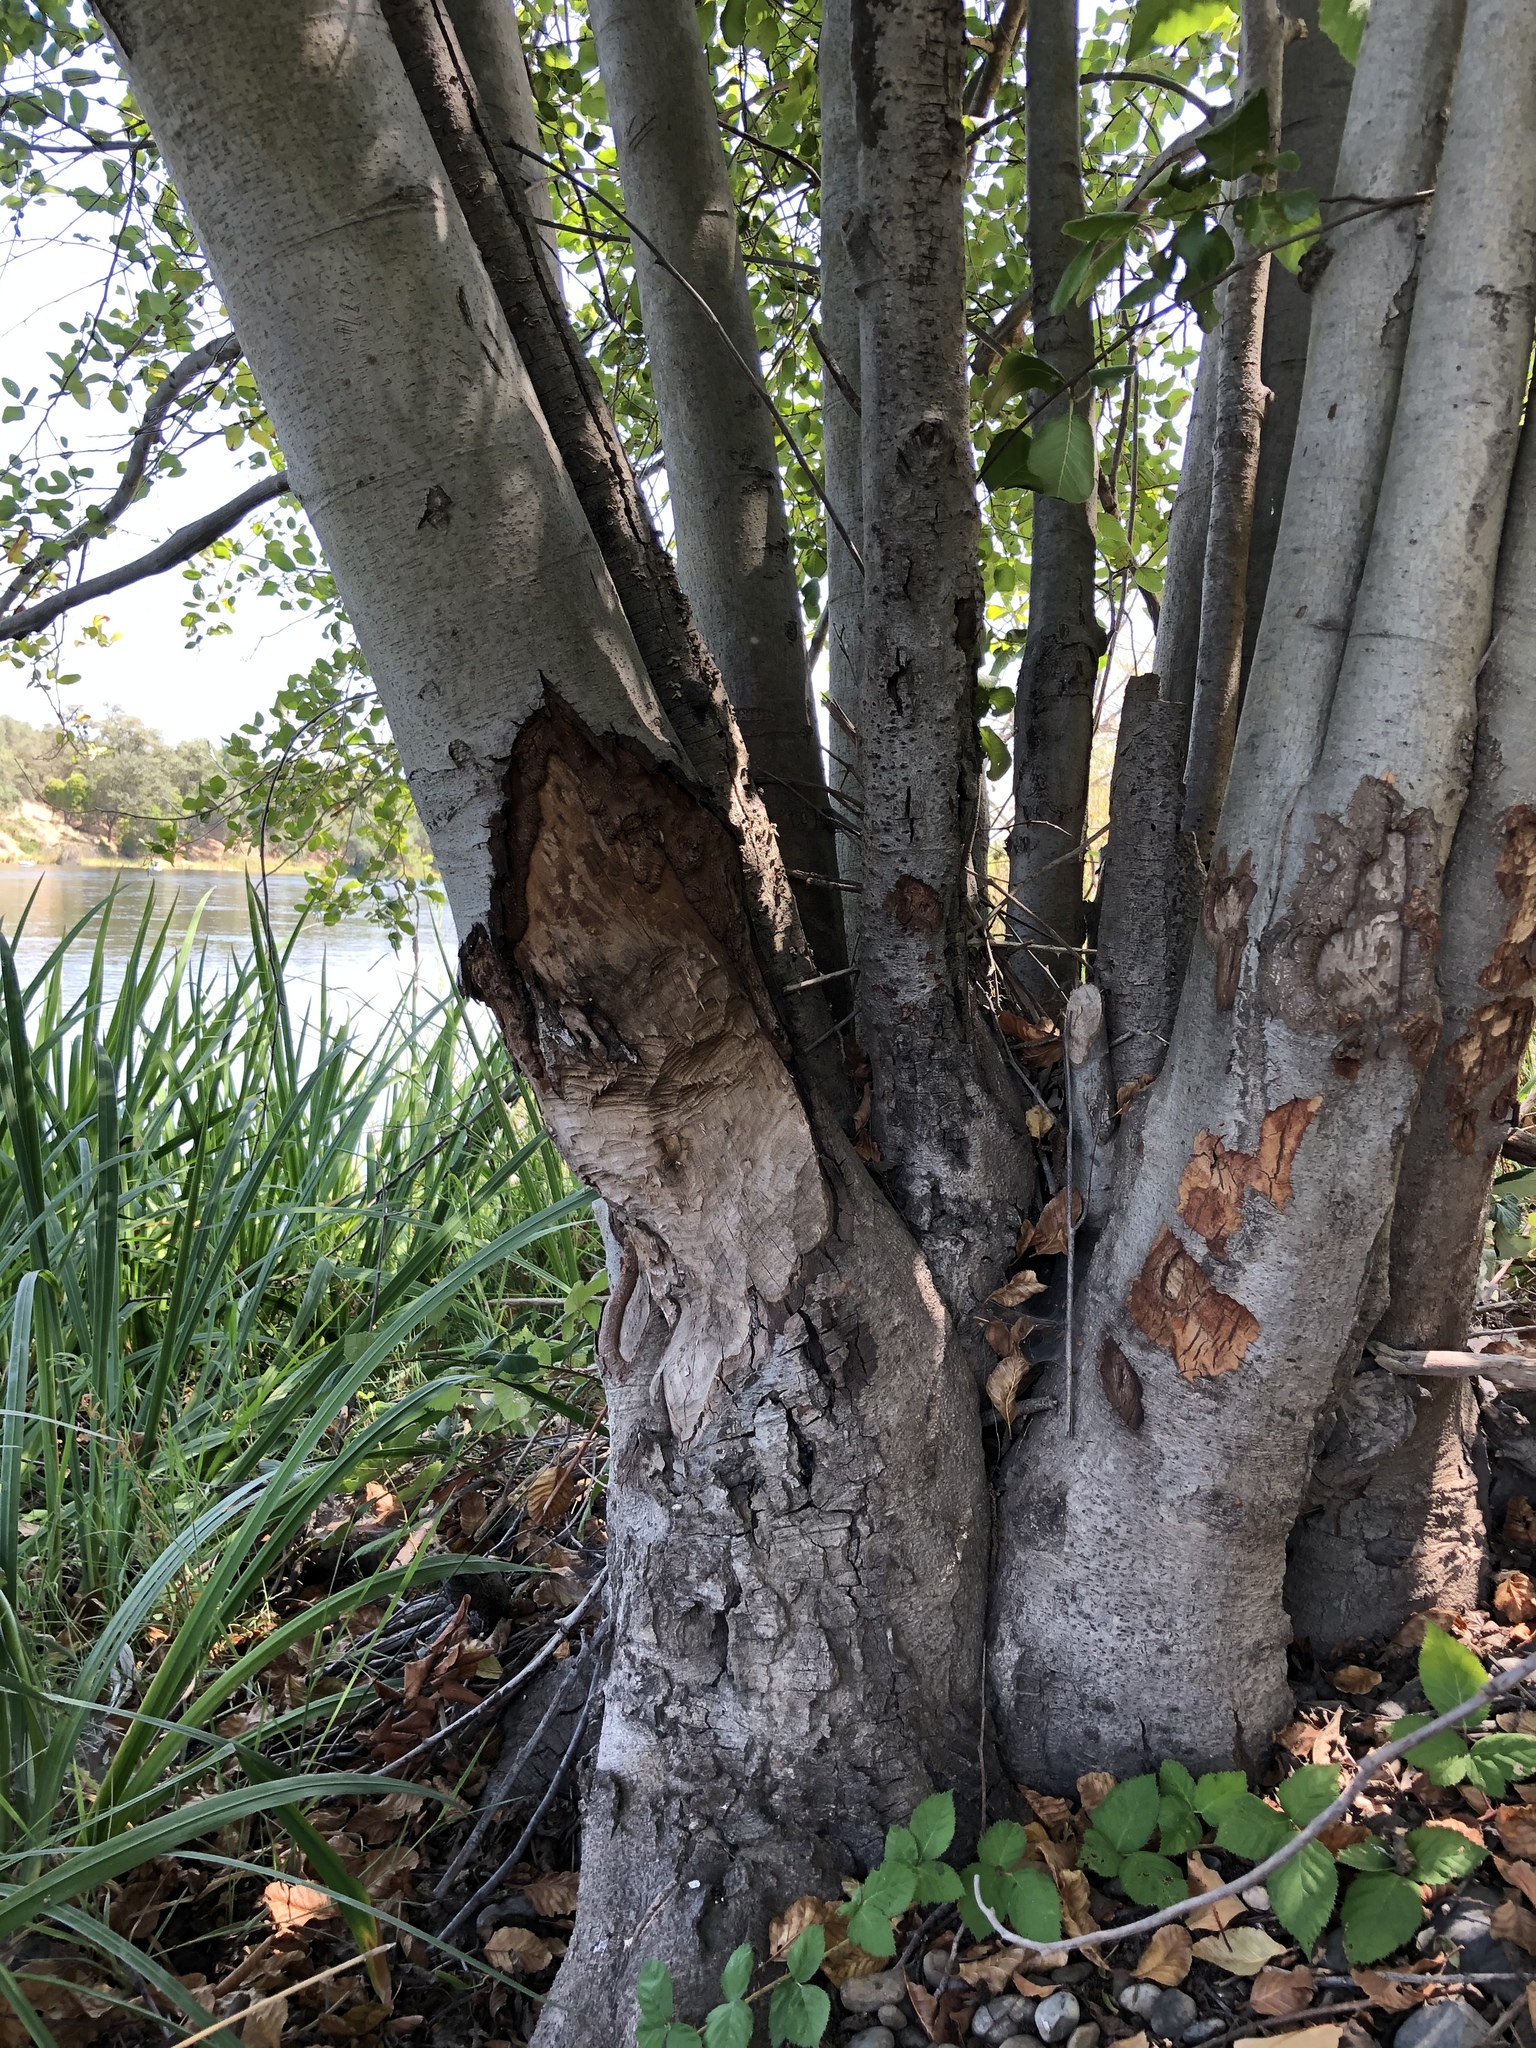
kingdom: Animalia
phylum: Chordata
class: Mammalia
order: Rodentia
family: Castoridae
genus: Castor
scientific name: Castor canadensis
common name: American beaver
